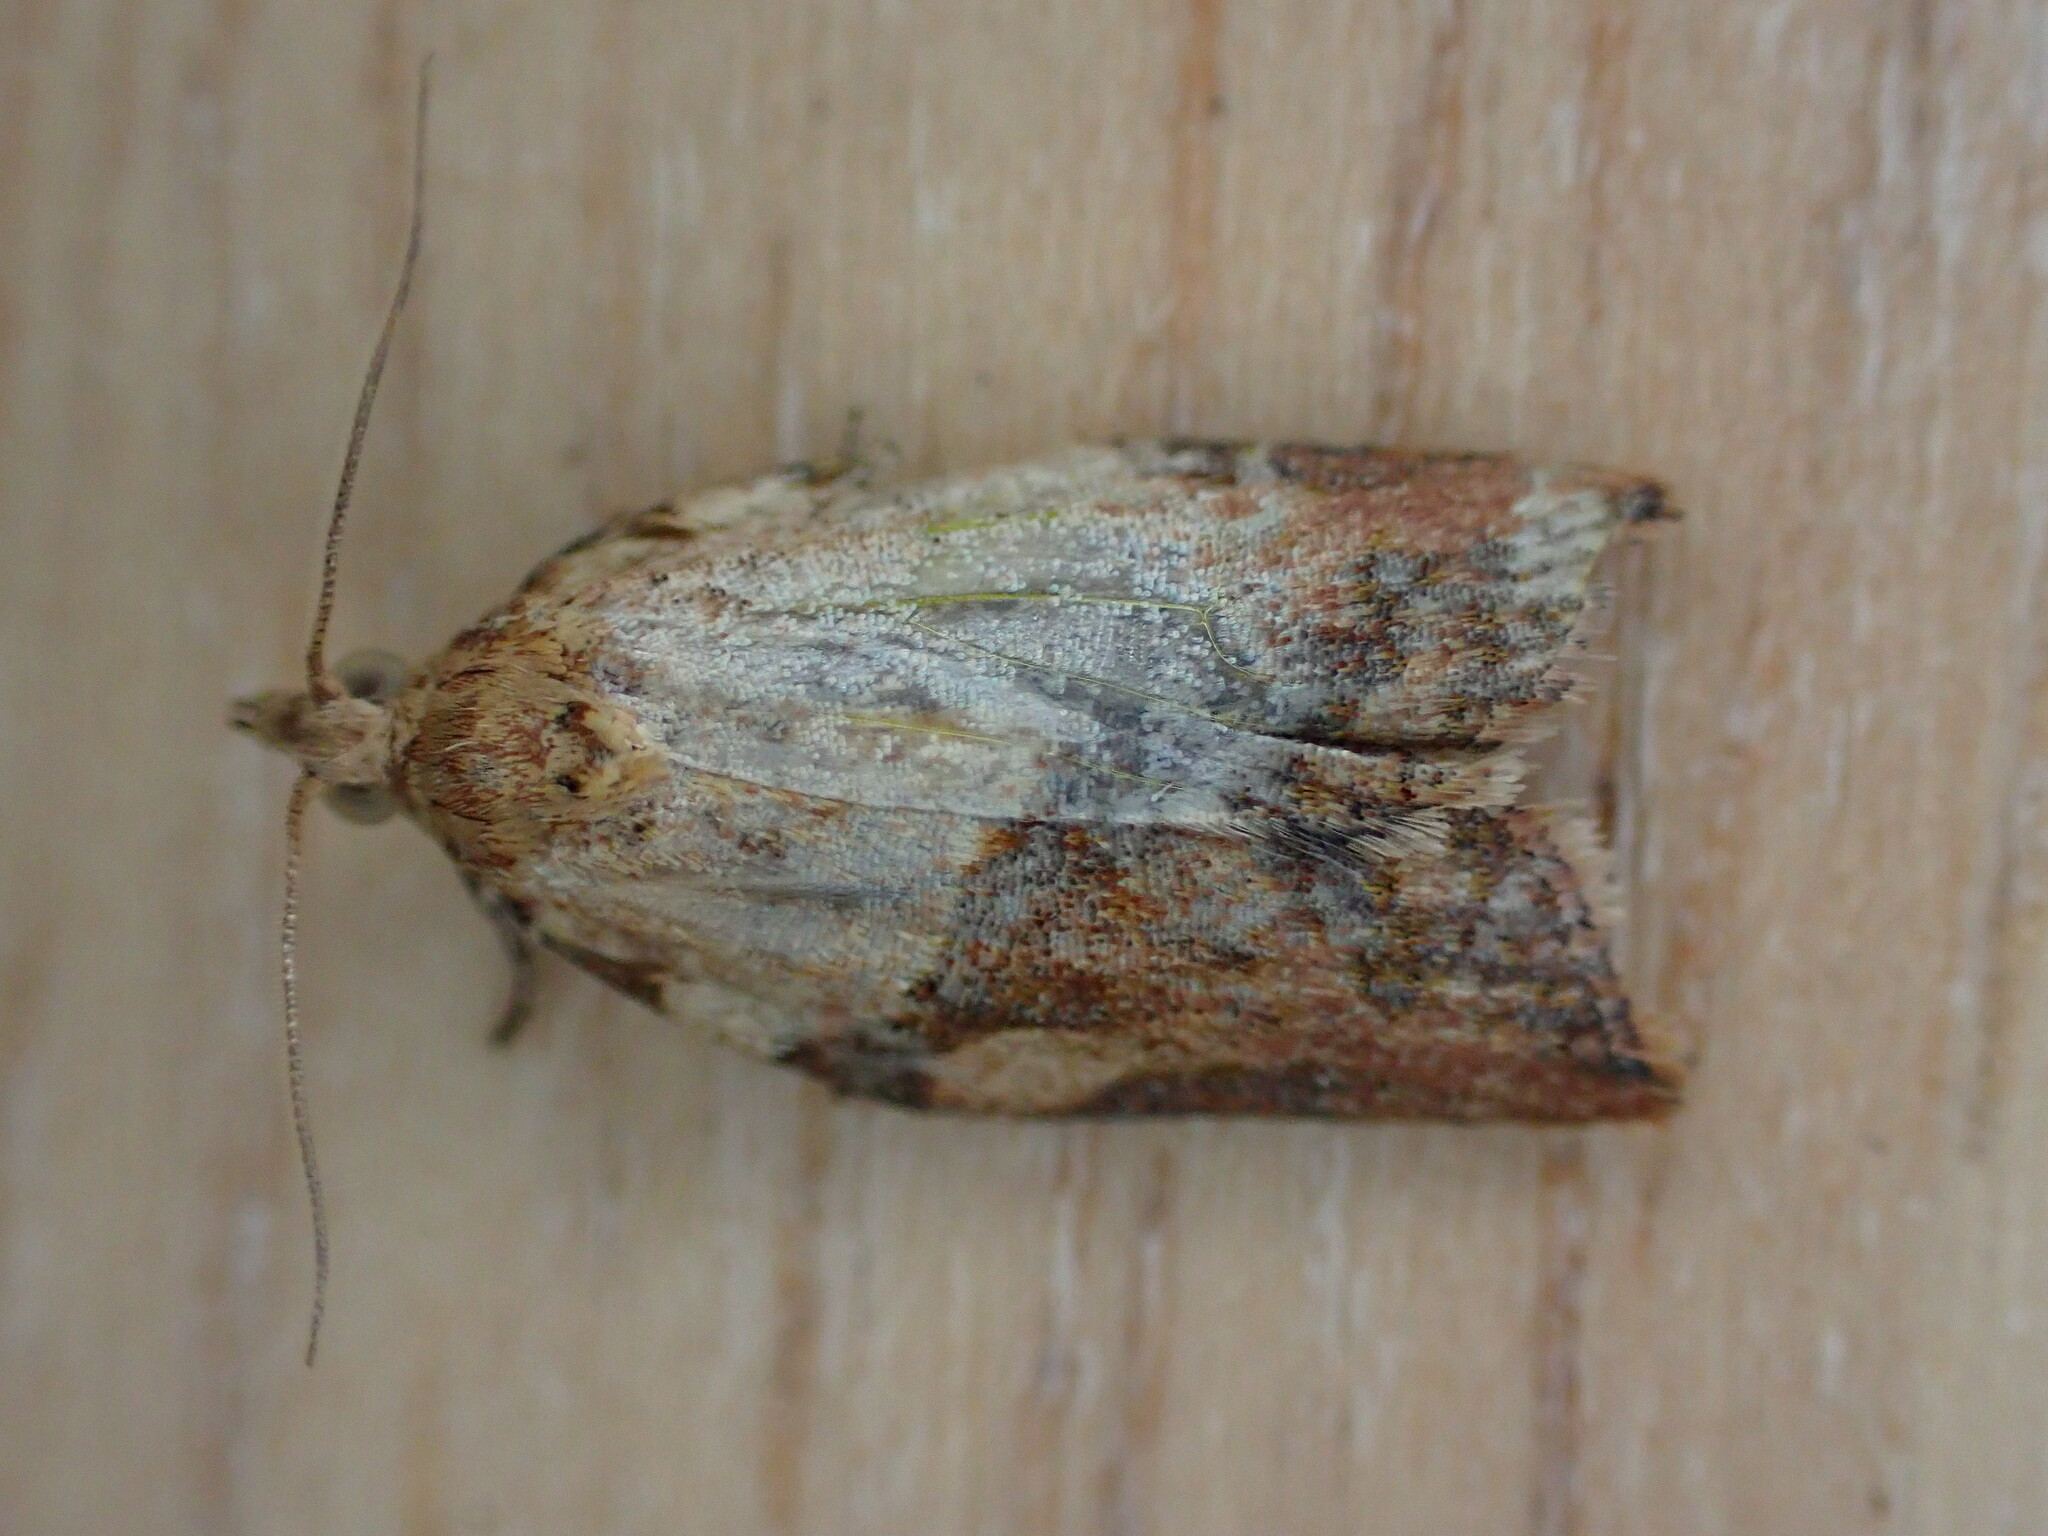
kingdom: Animalia
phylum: Arthropoda
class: Insecta
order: Lepidoptera
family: Tortricidae
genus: Epiphyas
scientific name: Epiphyas postvittana
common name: Light brown apple moth
